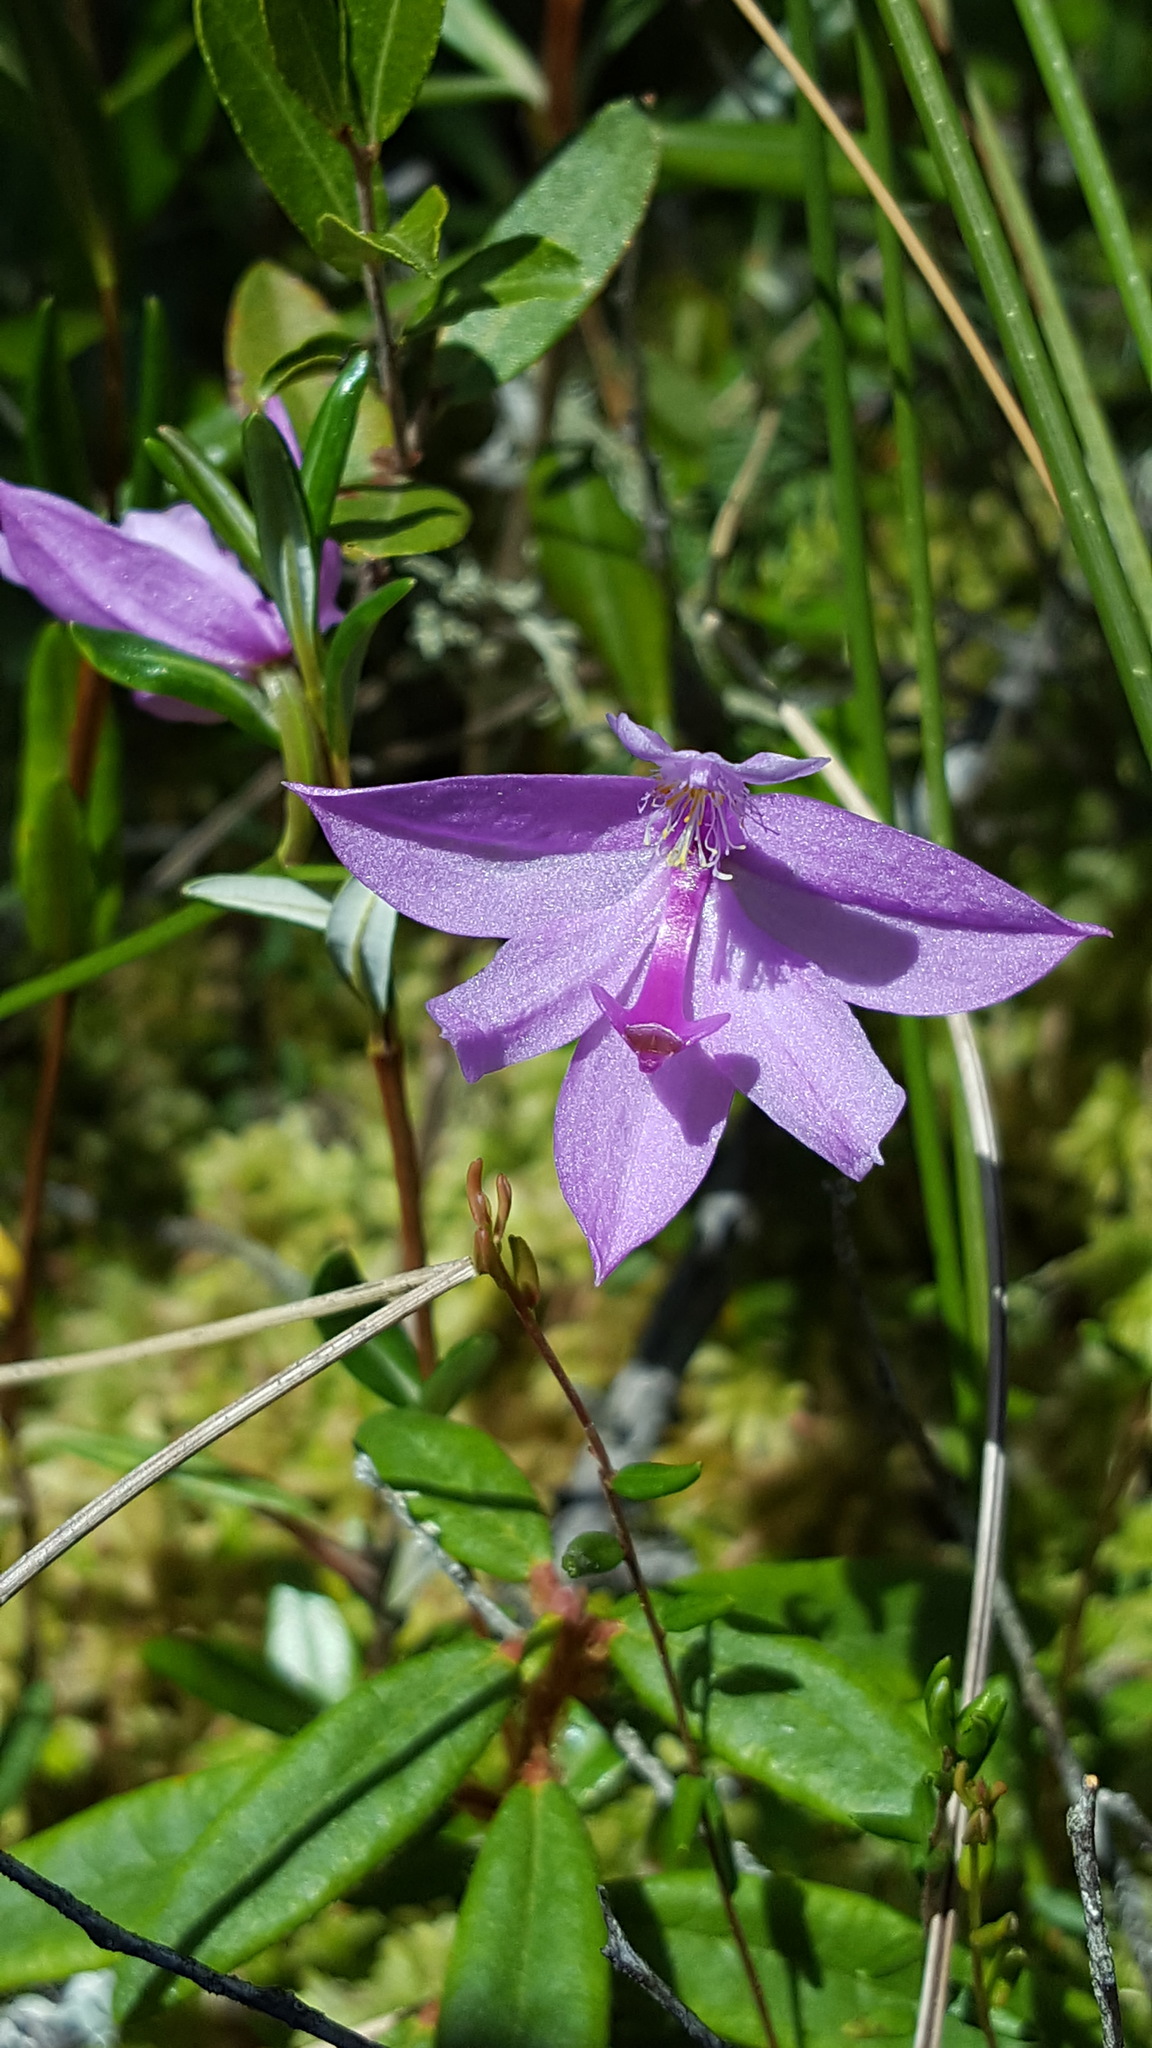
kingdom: Plantae
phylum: Tracheophyta
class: Liliopsida
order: Asparagales
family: Orchidaceae
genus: Calopogon
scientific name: Calopogon tuberosus
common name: Grass-pink
